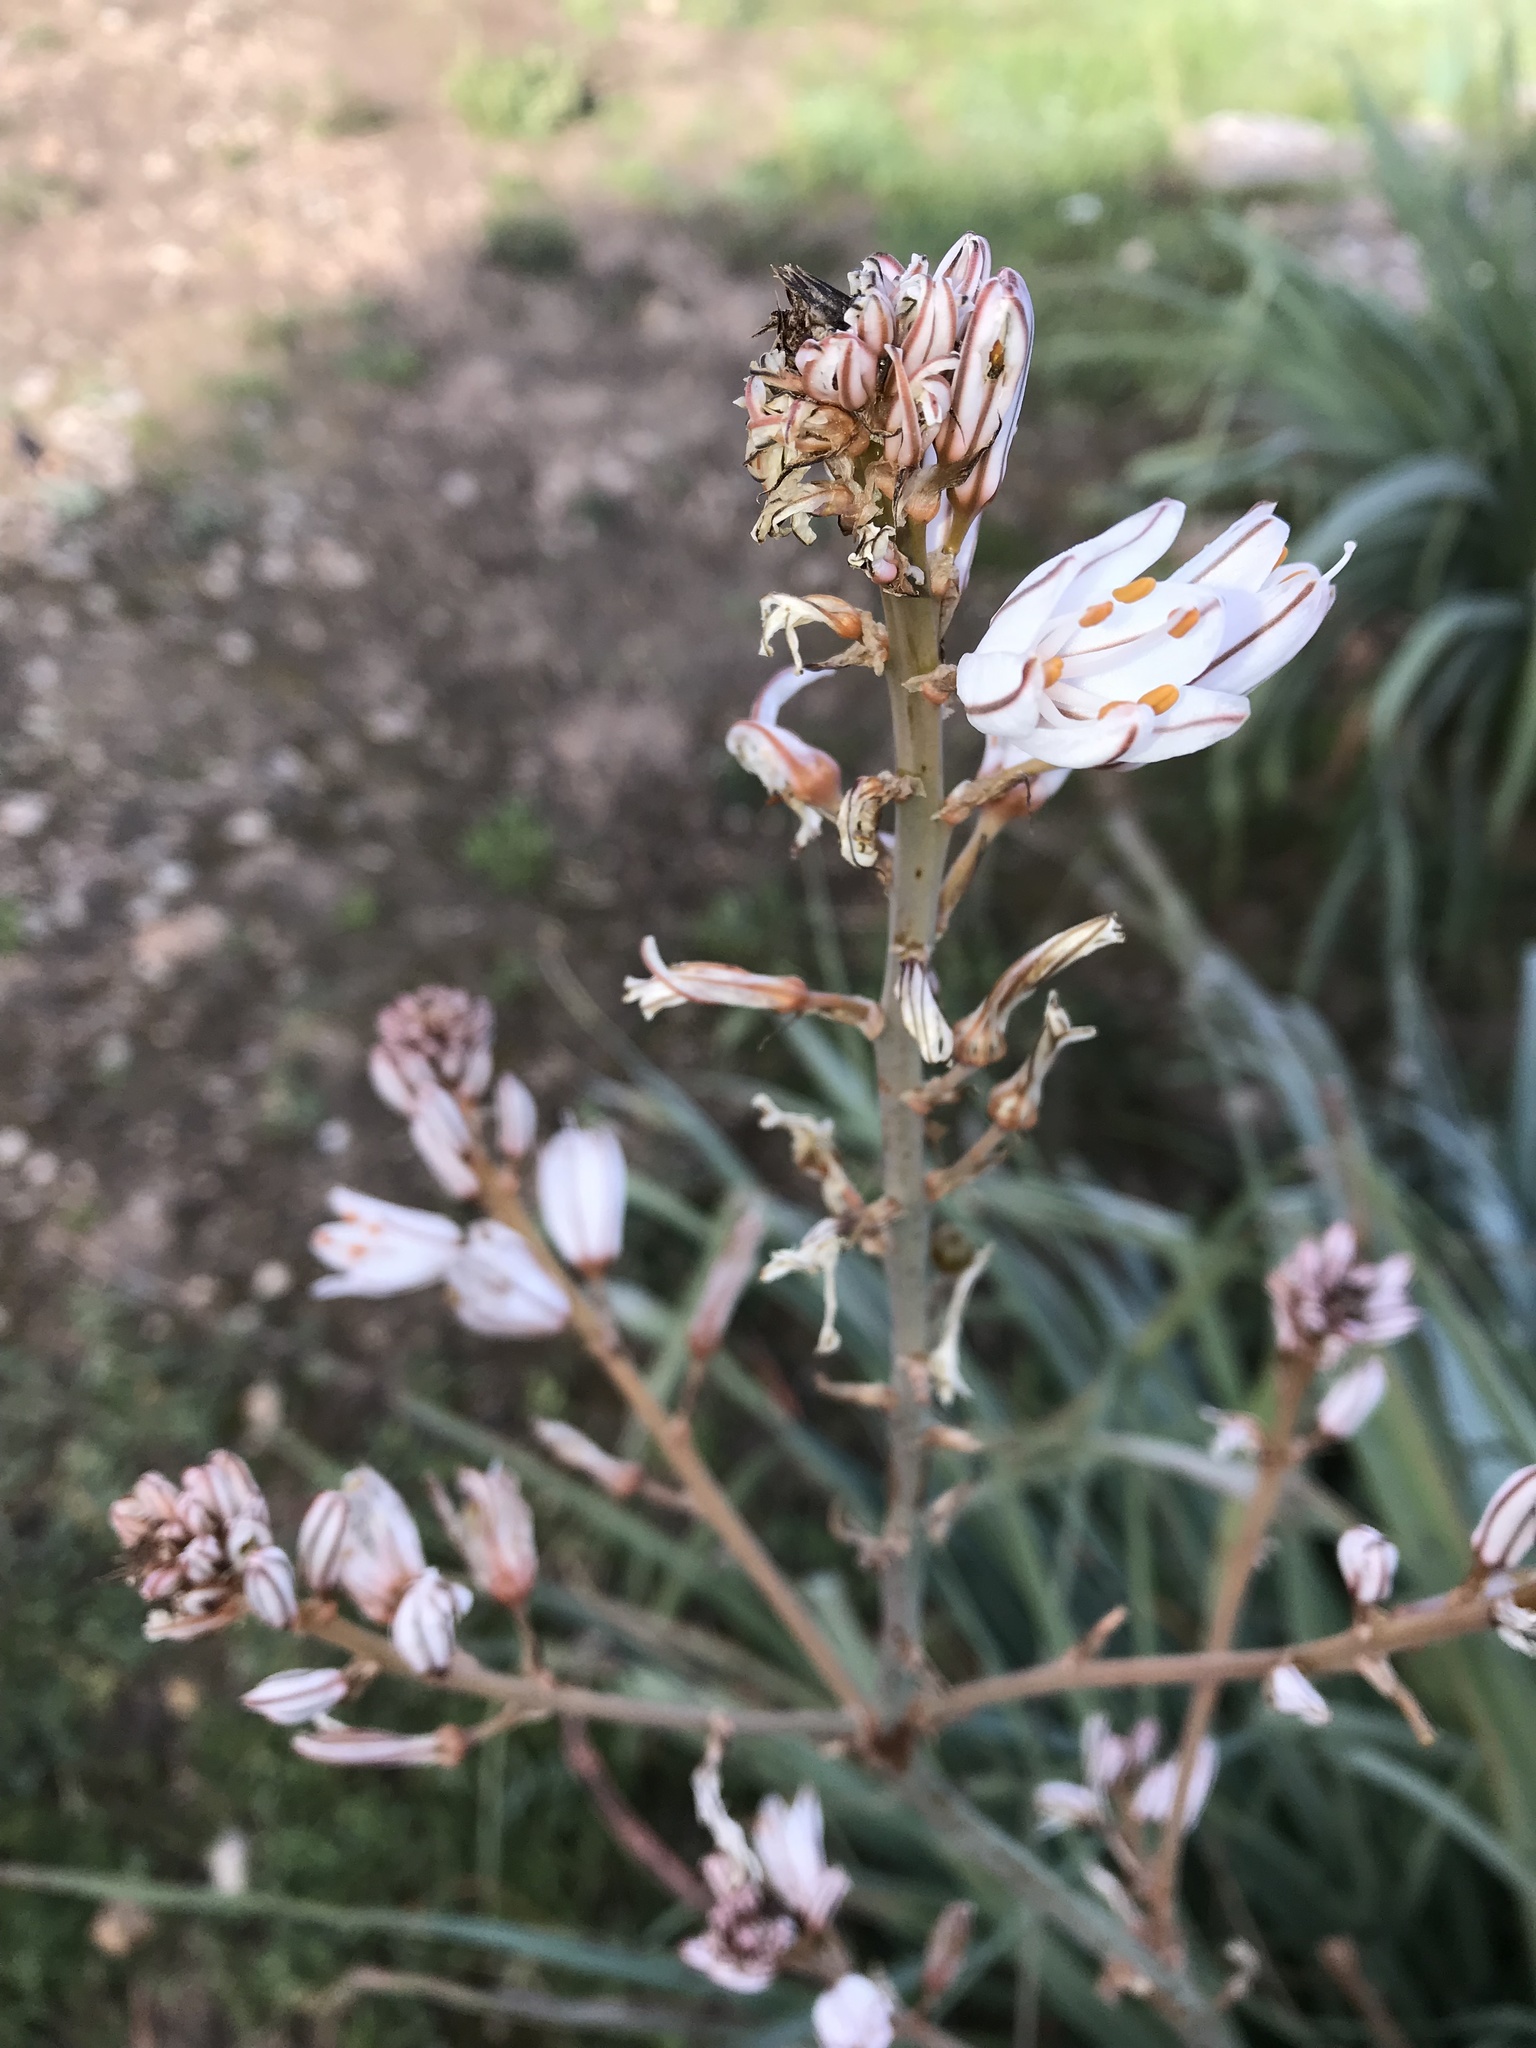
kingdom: Plantae
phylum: Tracheophyta
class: Liliopsida
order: Asparagales
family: Asphodelaceae
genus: Asphodelus
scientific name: Asphodelus aestivus
